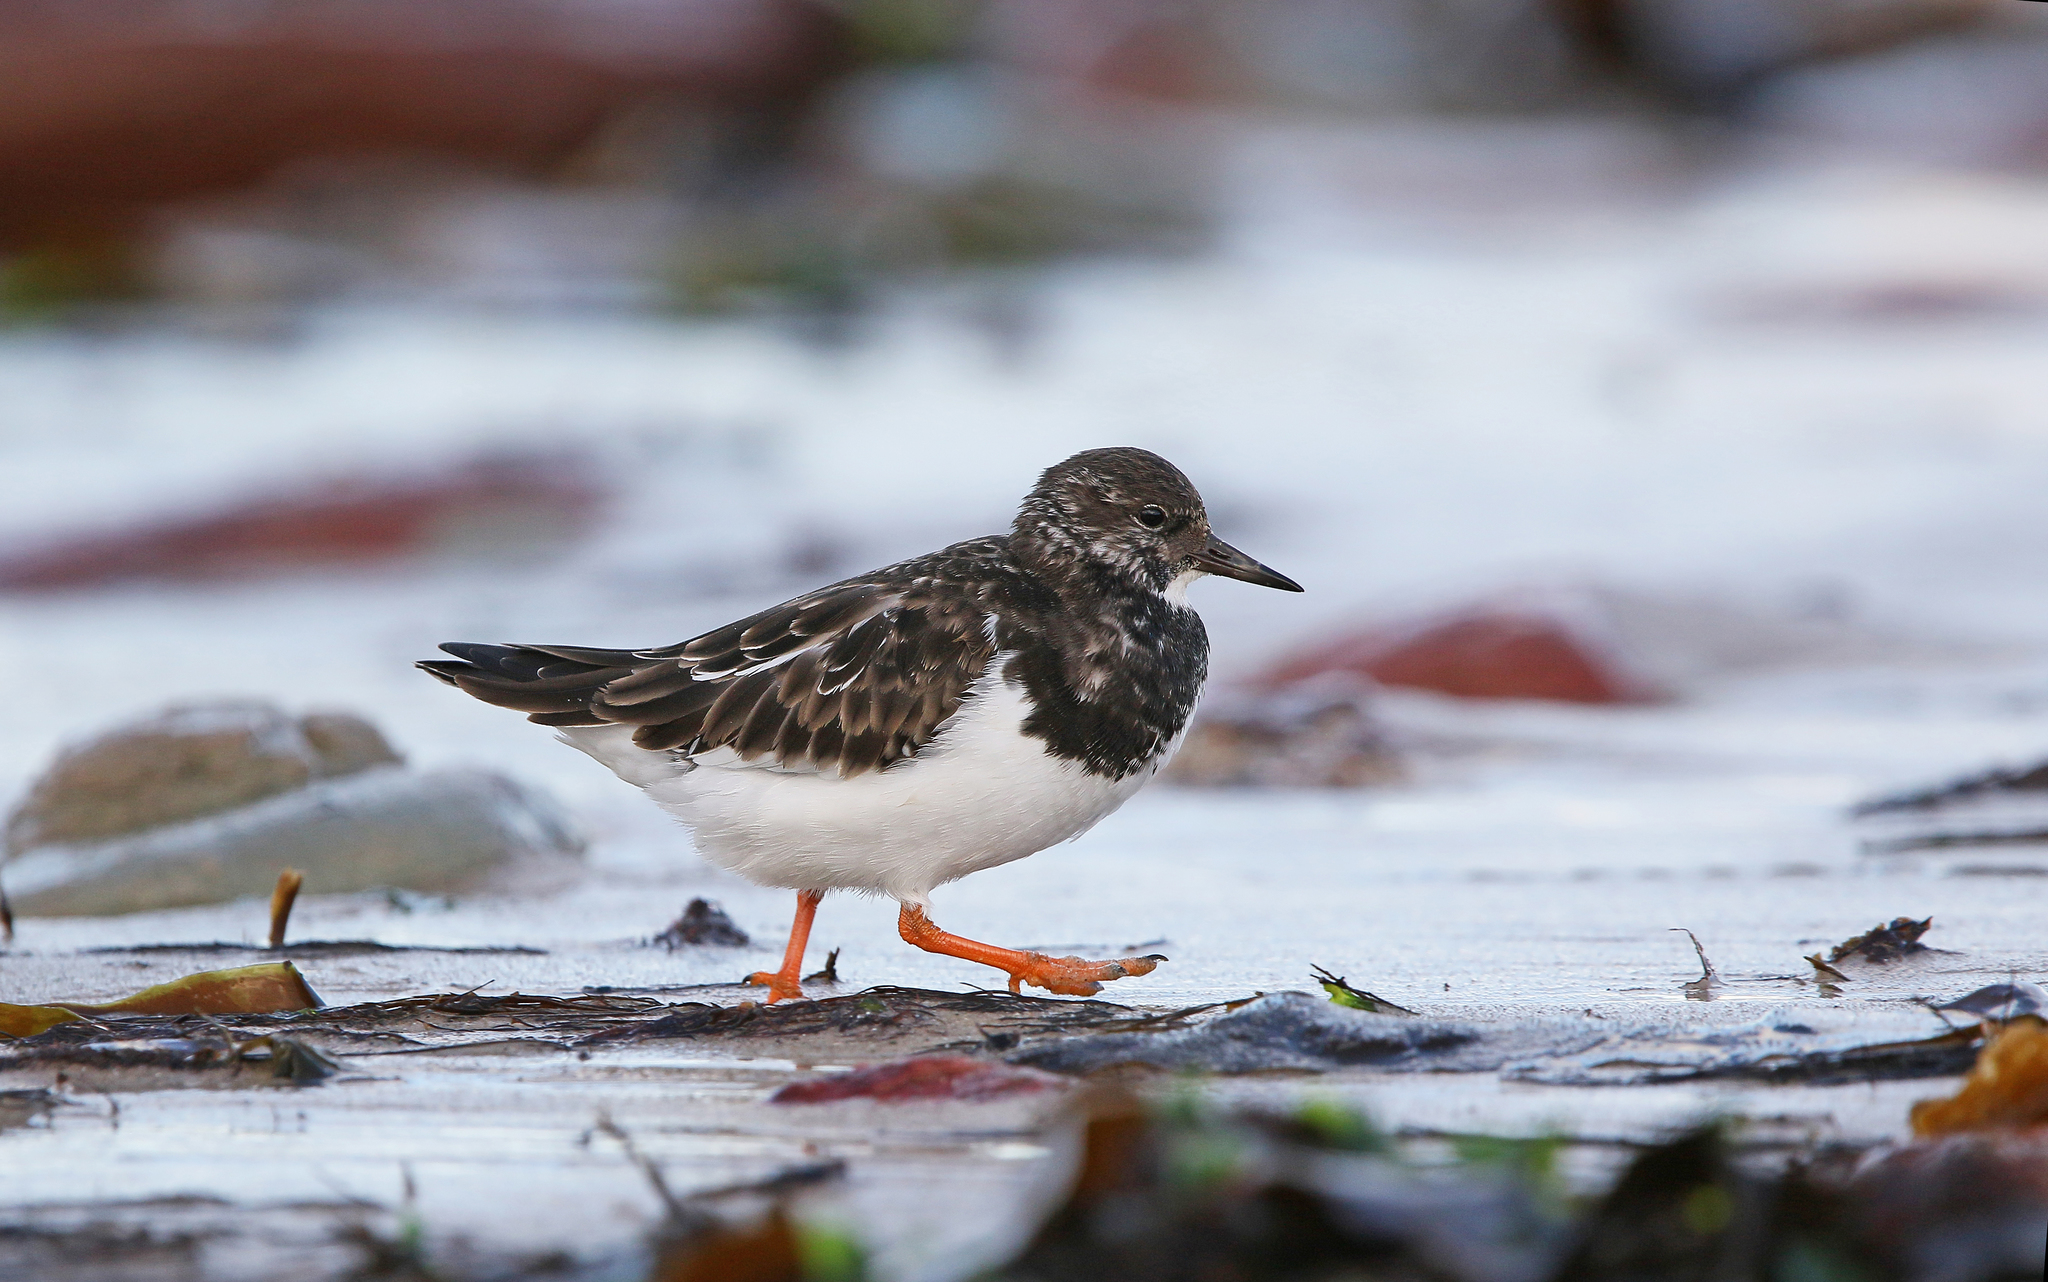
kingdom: Animalia
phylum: Chordata
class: Aves
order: Charadriiformes
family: Scolopacidae
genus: Arenaria
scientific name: Arenaria interpres
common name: Ruddy turnstone
